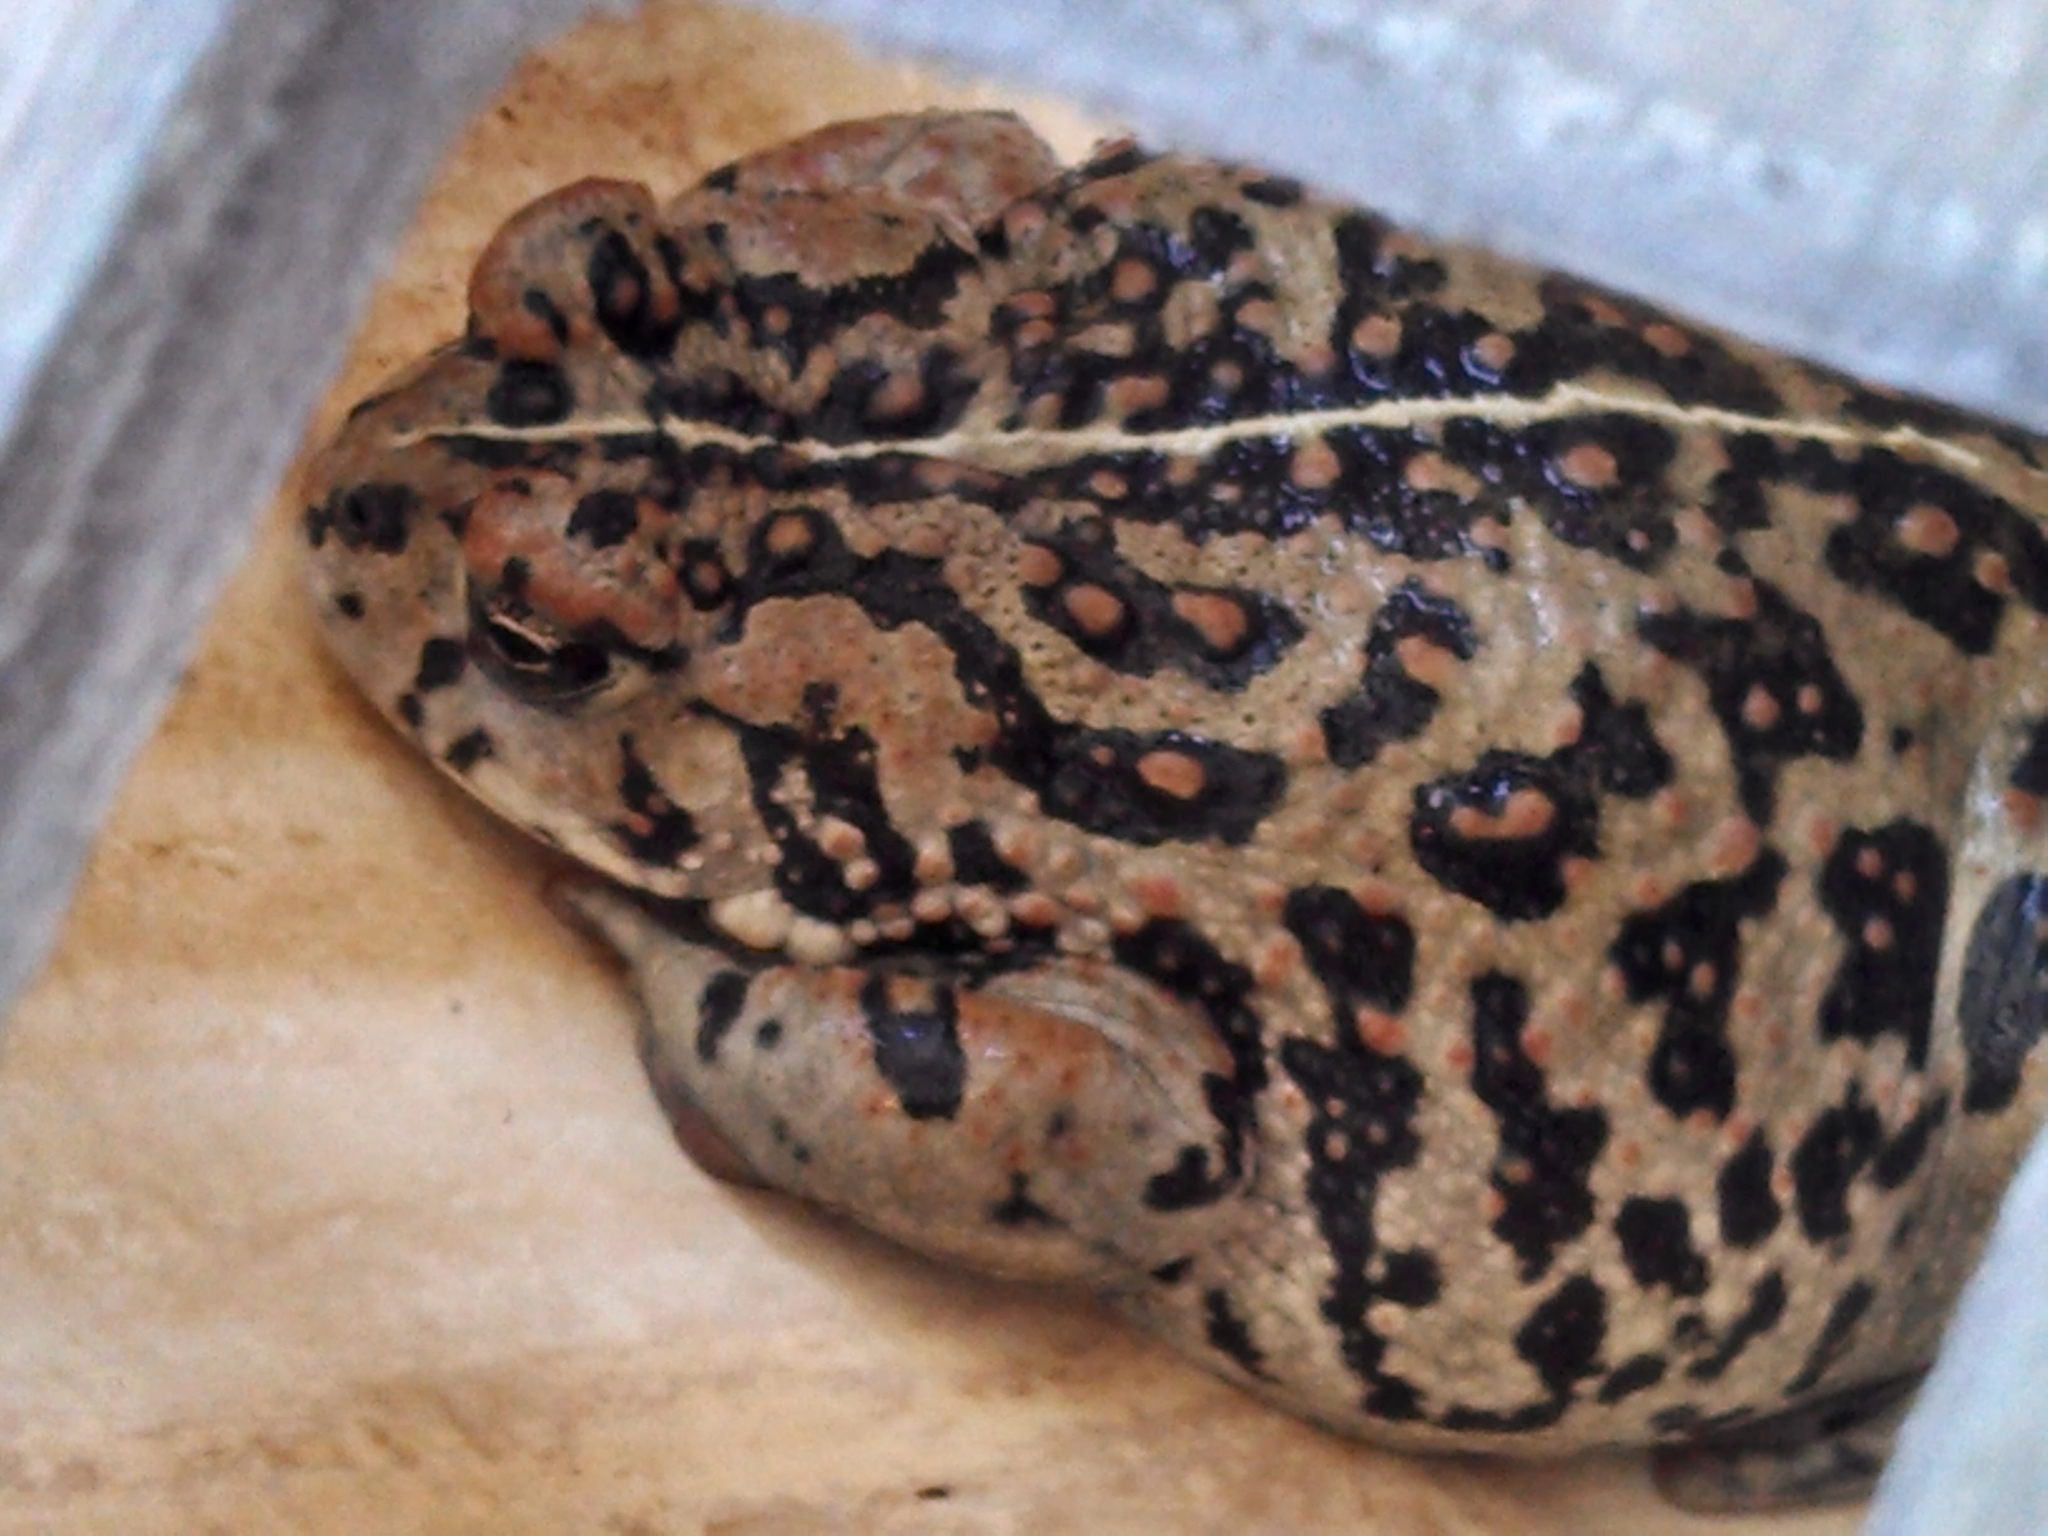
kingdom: Animalia
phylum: Chordata
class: Amphibia
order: Anura
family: Bufonidae
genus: Anaxyrus
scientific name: Anaxyrus boreas
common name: Western toad
